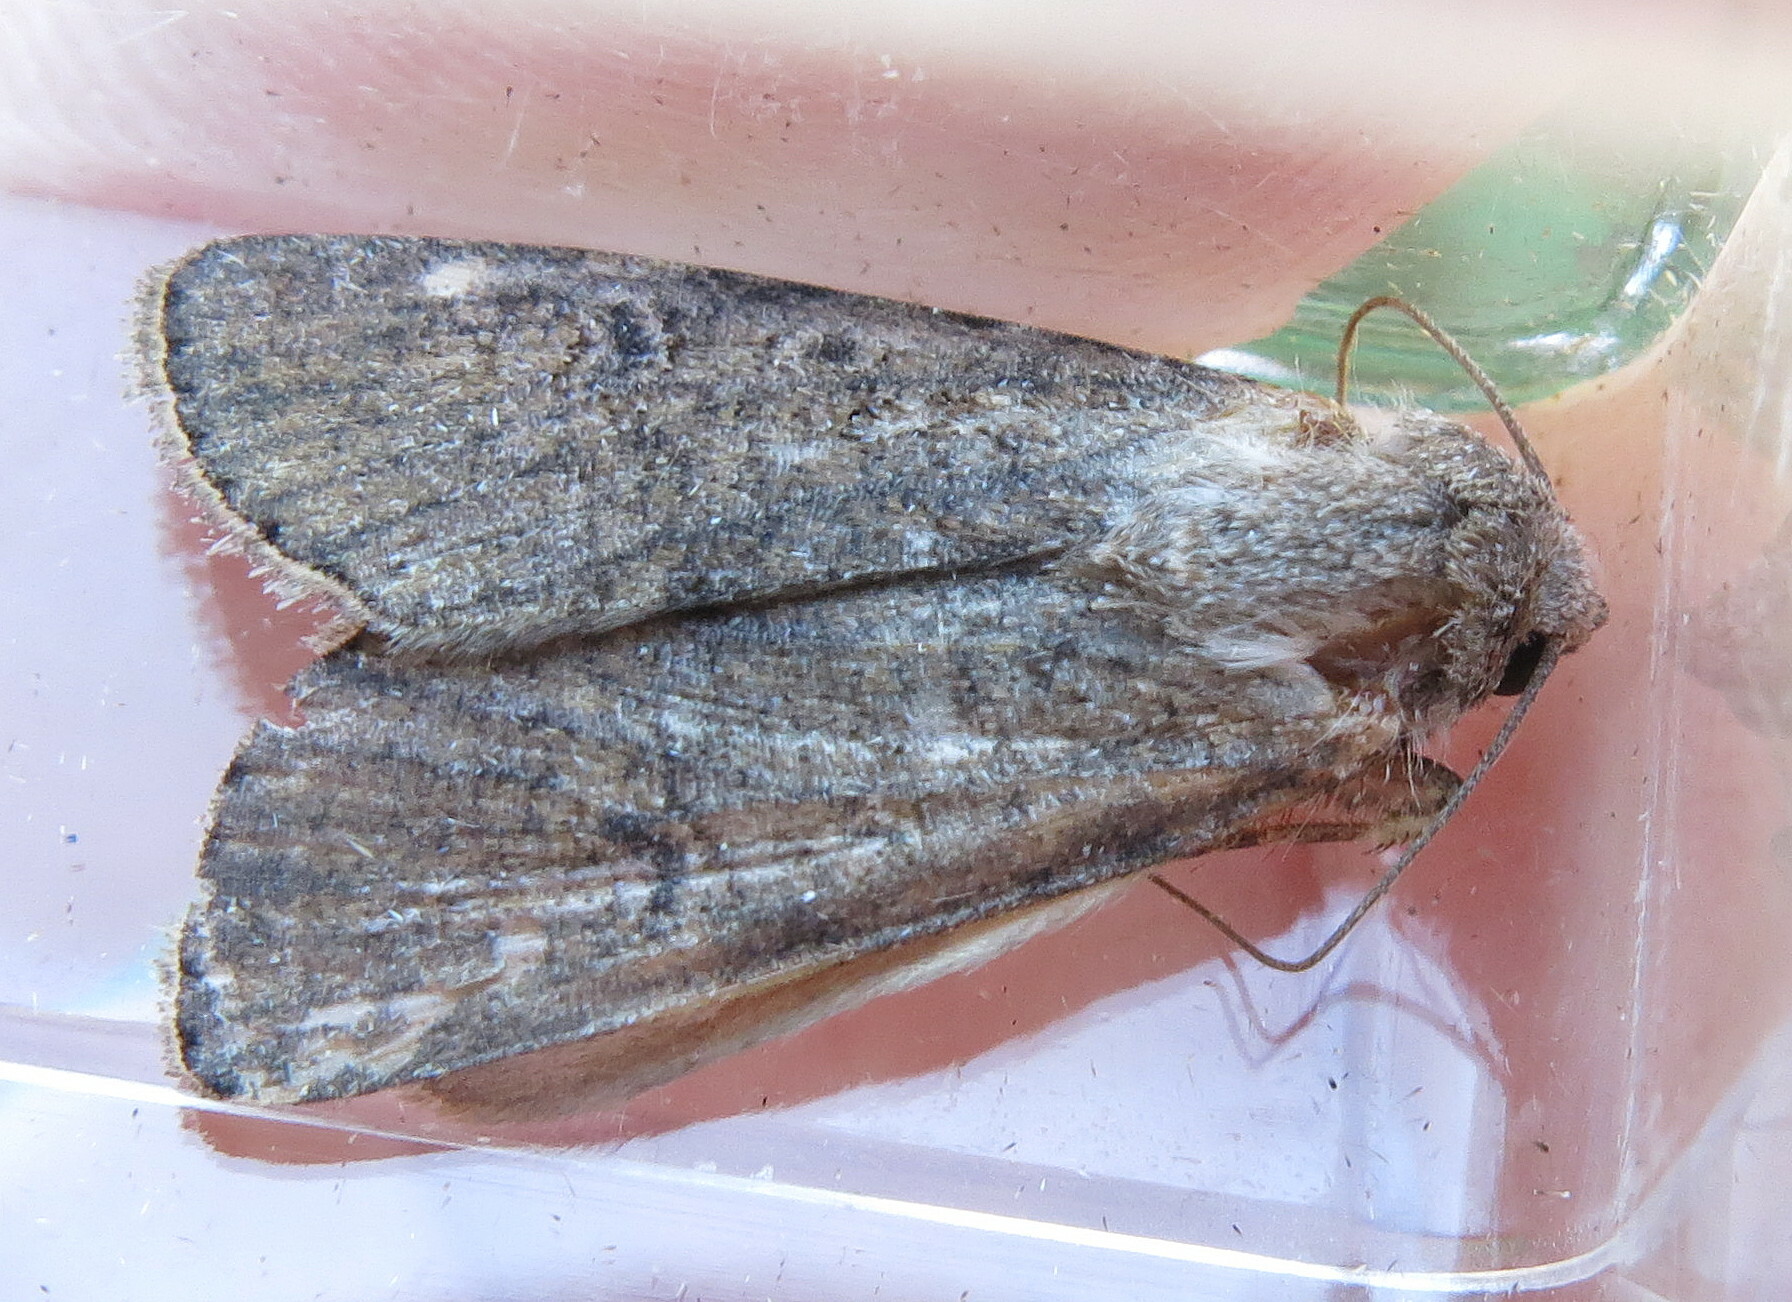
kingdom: Animalia
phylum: Arthropoda
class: Insecta
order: Lepidoptera
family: Noctuidae
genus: Agrotis
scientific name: Agrotis segetum
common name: Turnip moth
